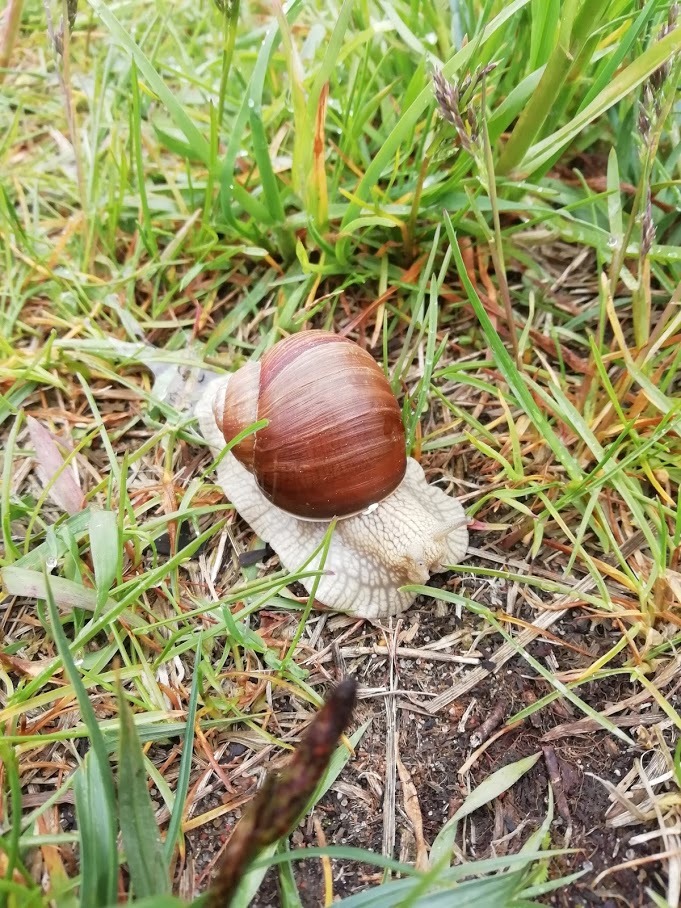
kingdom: Animalia
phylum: Mollusca
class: Gastropoda
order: Stylommatophora
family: Helicidae
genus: Helix
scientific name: Helix pomatia
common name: Roman snail
